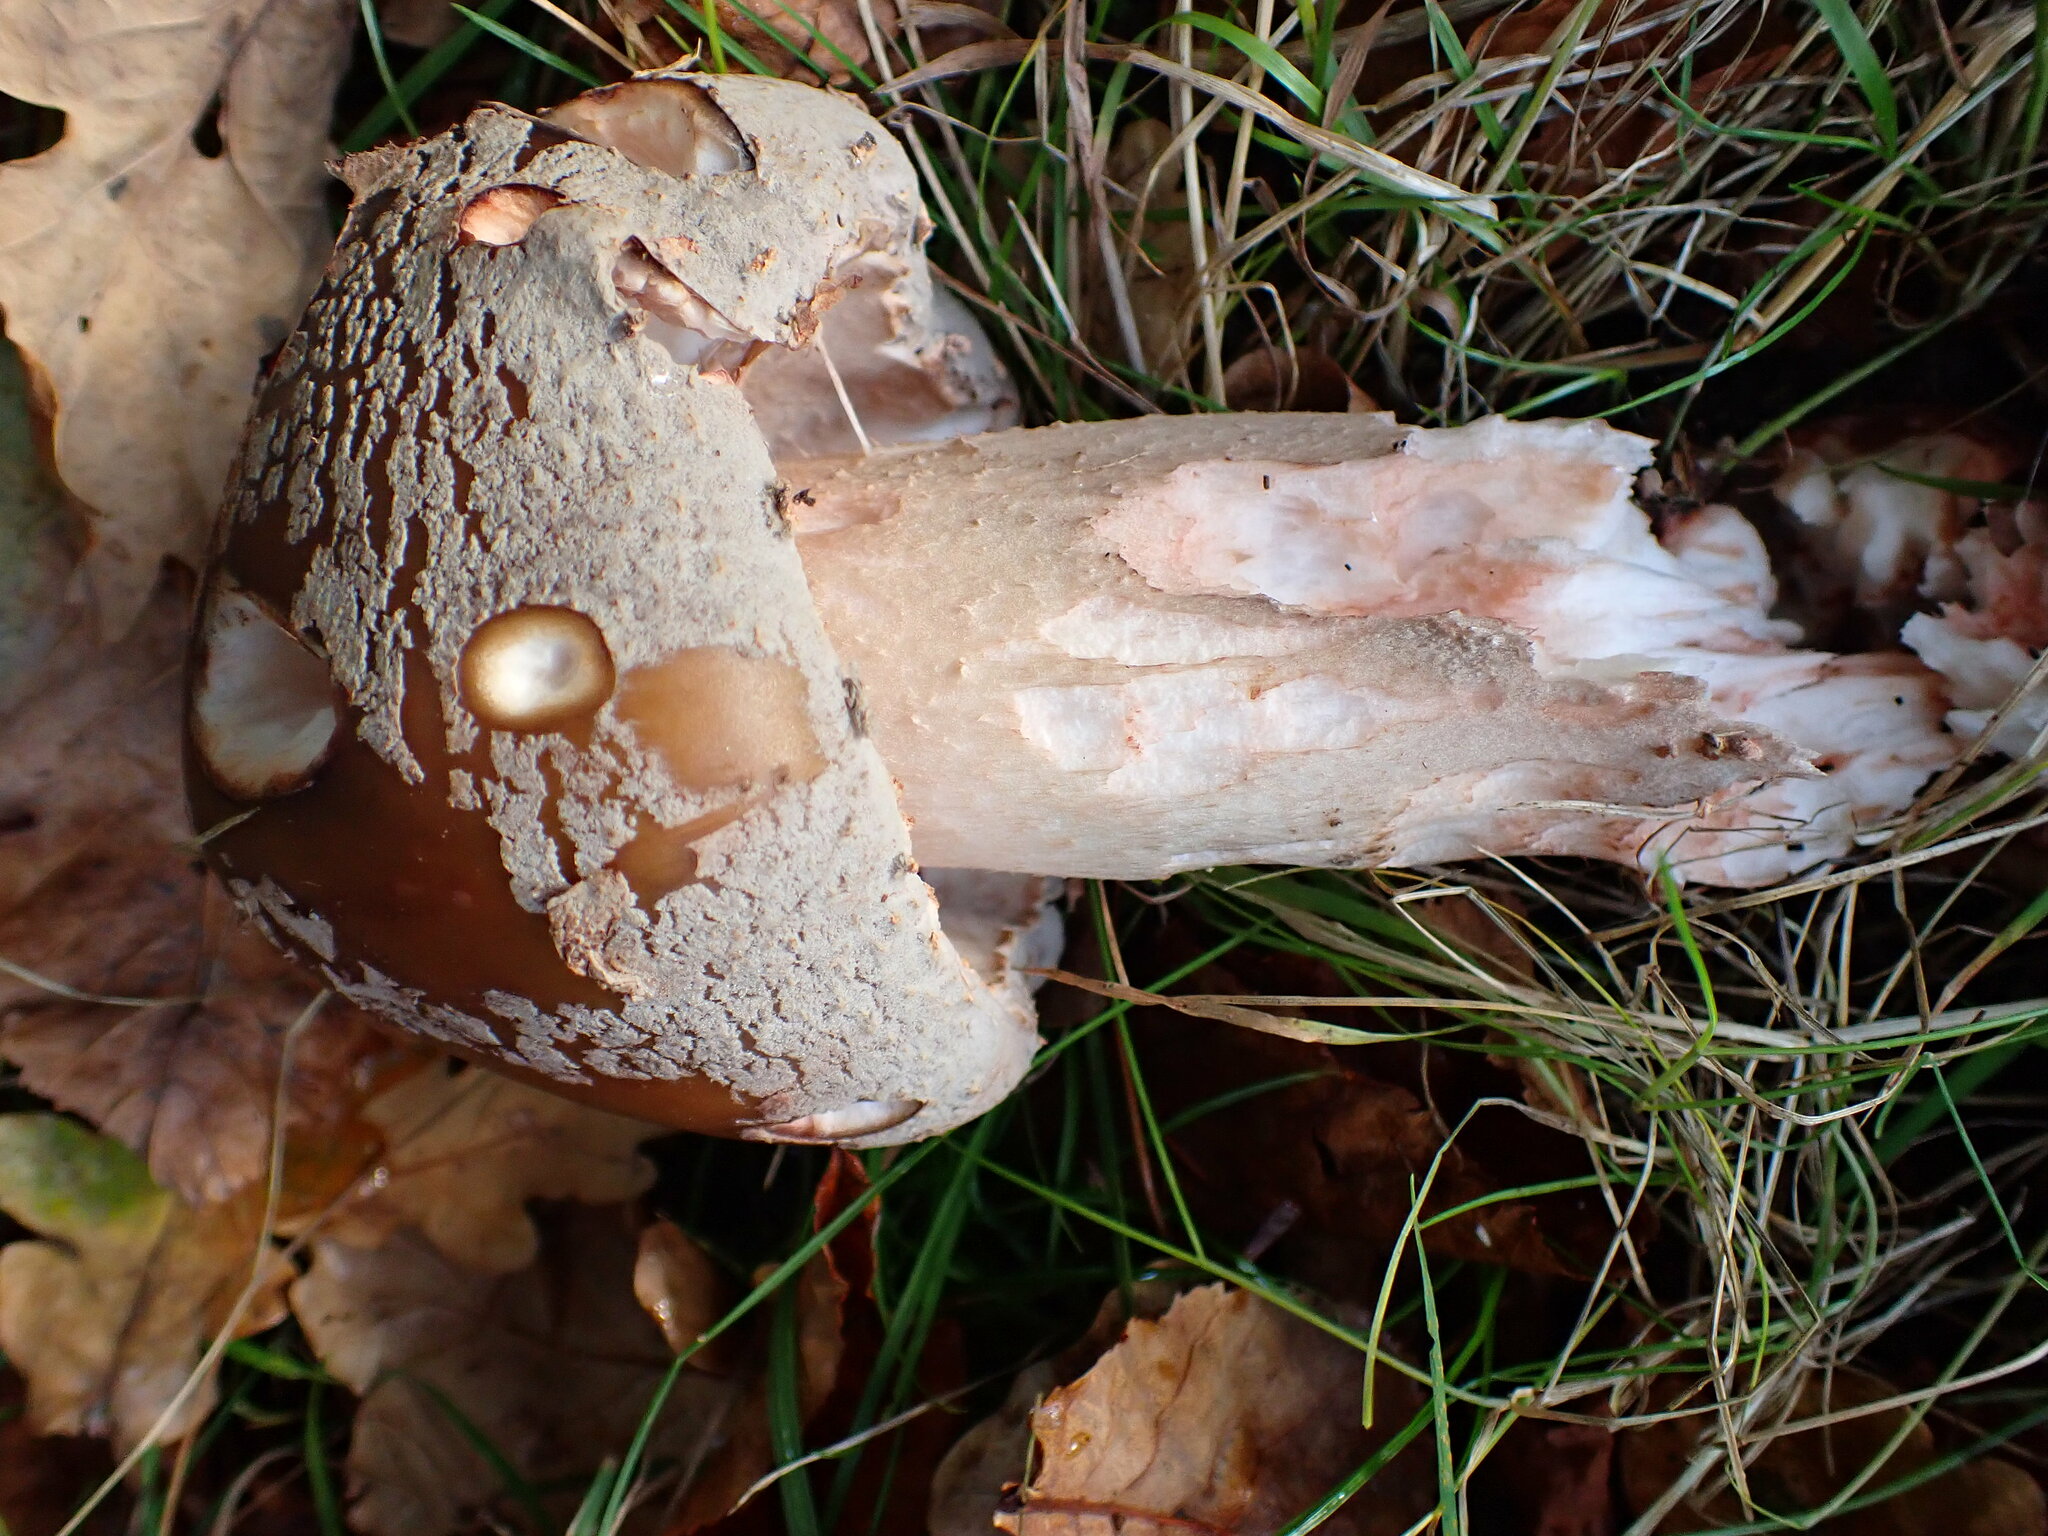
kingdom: Fungi
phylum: Basidiomycota
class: Agaricomycetes
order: Agaricales
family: Amanitaceae
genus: Amanita
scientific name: Amanita rubescens
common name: Blusher
